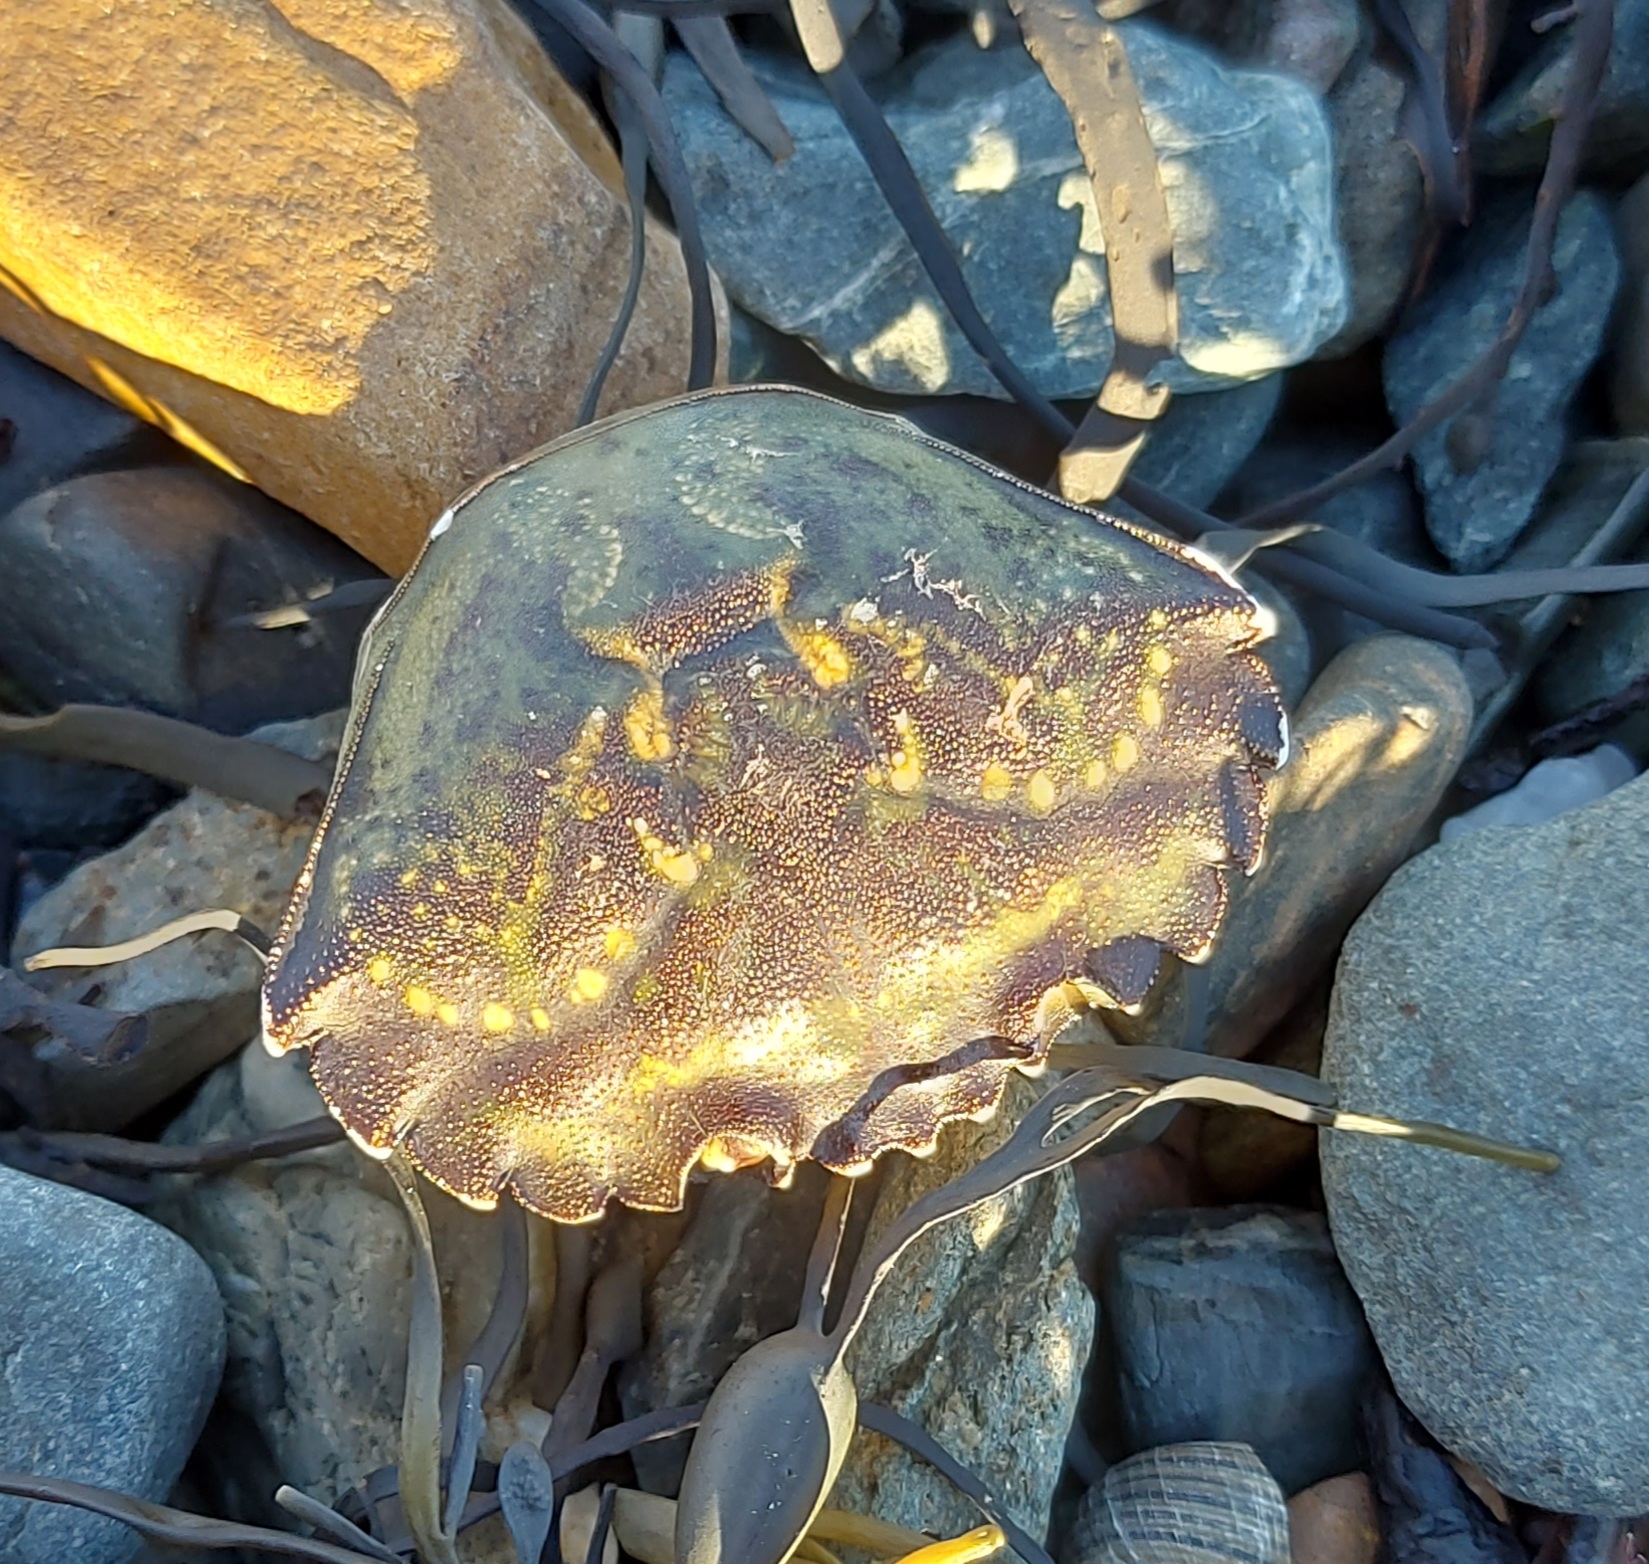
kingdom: Animalia
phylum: Arthropoda
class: Malacostraca
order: Decapoda
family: Carcinidae
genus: Carcinus
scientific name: Carcinus maenas
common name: European green crab
